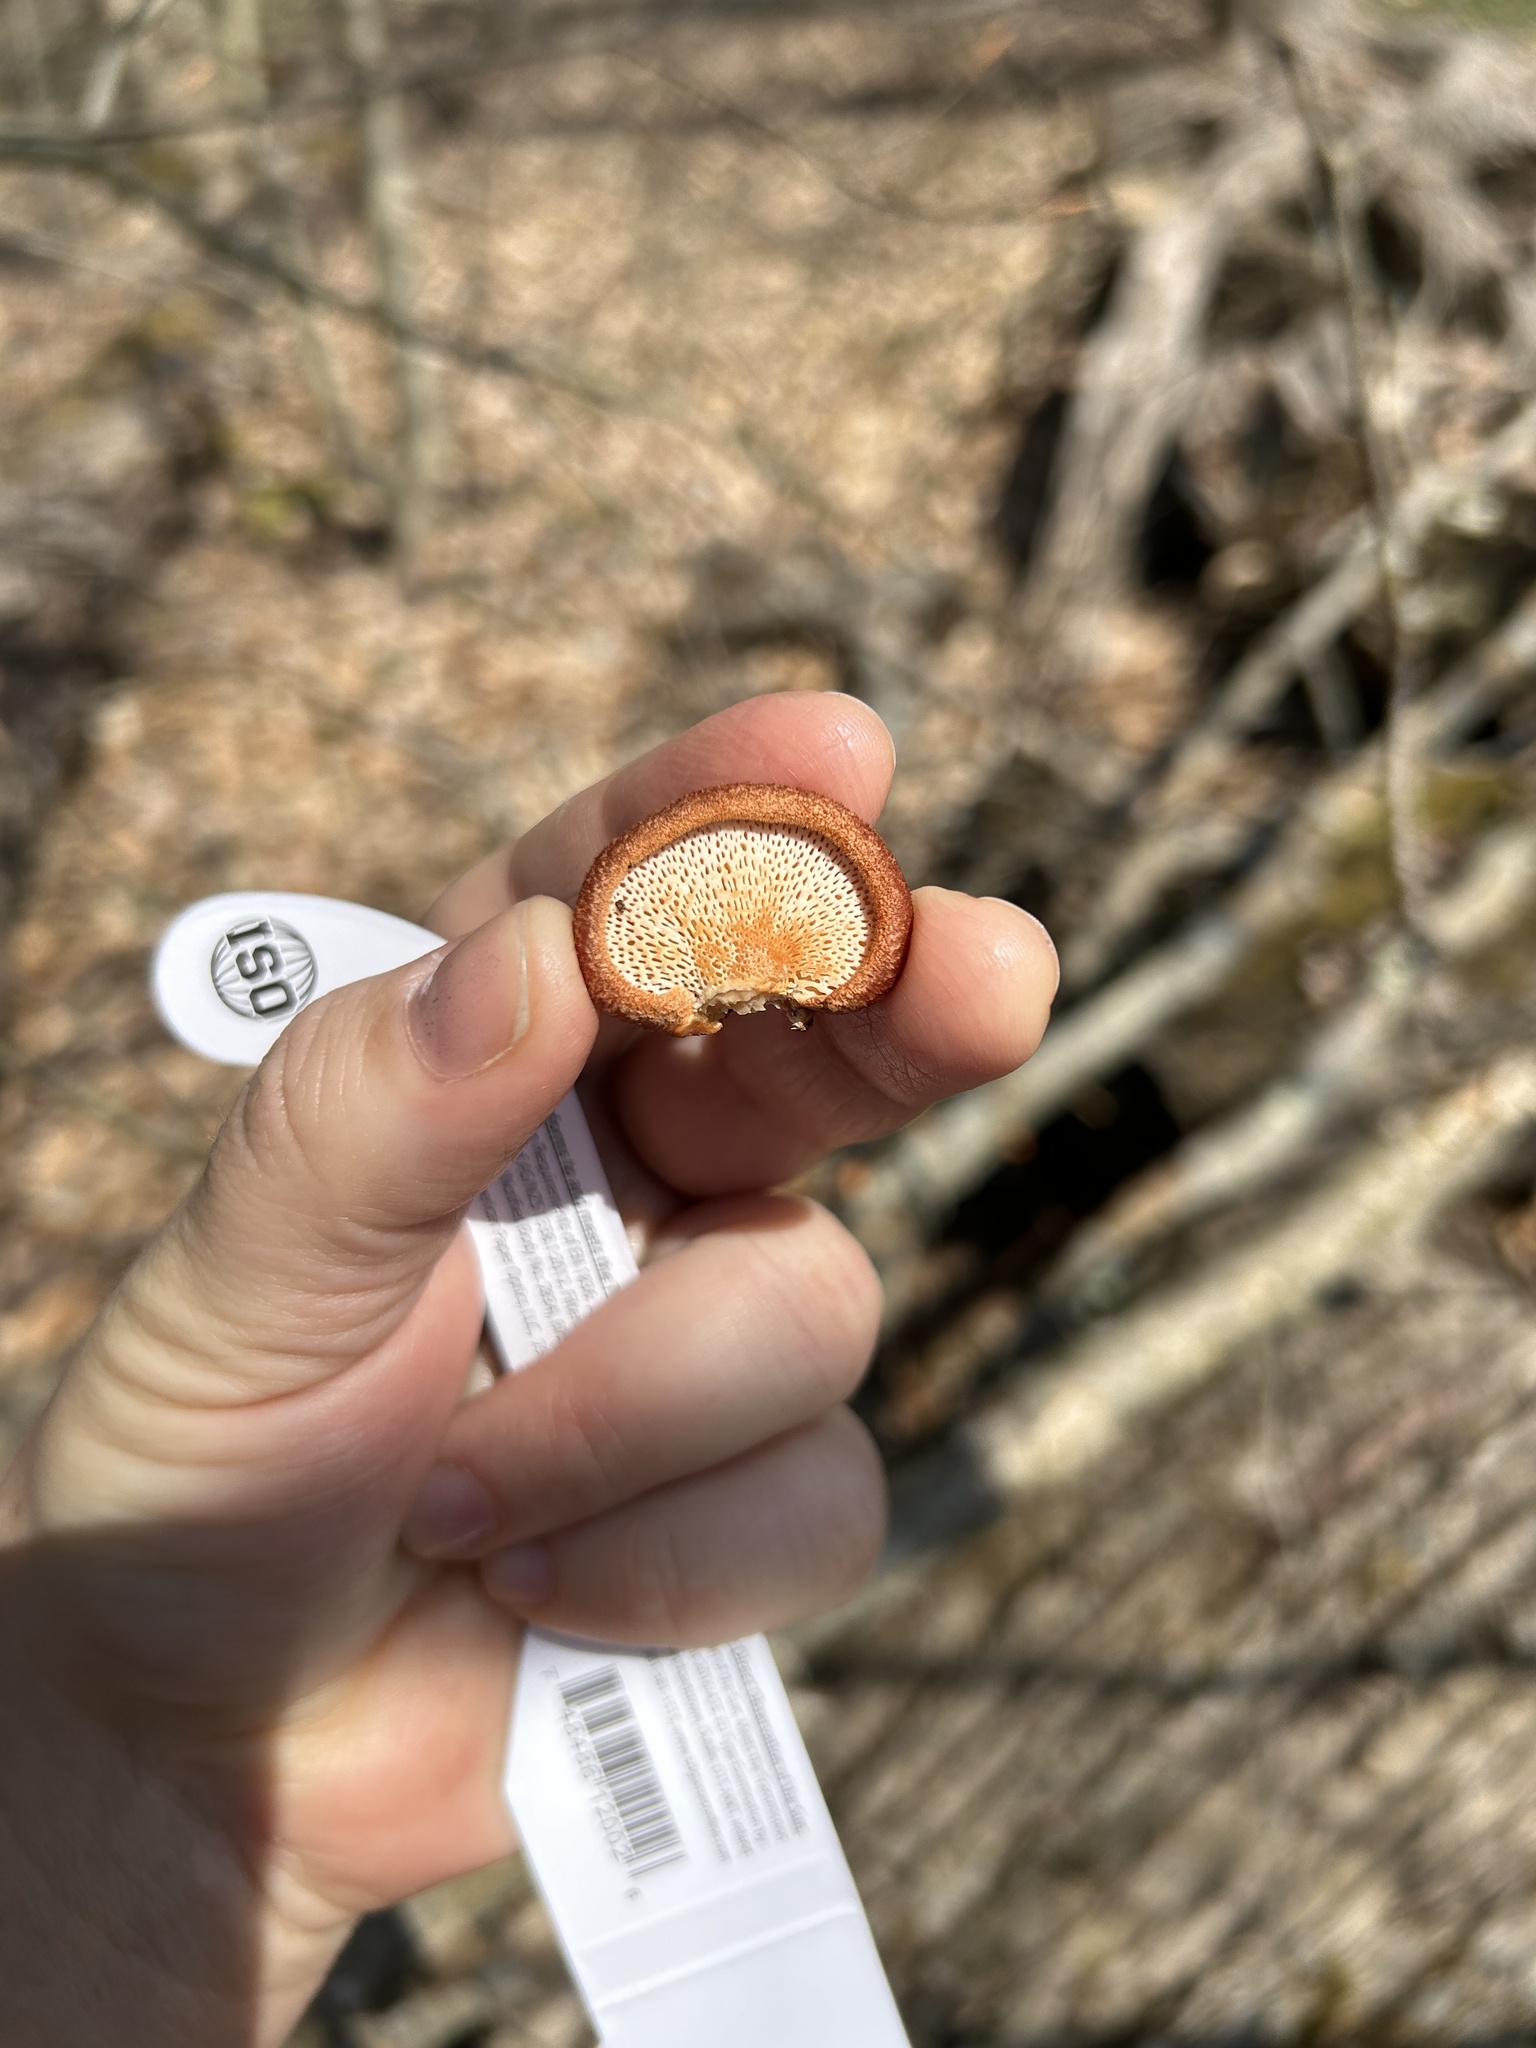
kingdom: Fungi
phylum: Basidiomycota
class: Agaricomycetes
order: Polyporales
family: Polyporaceae
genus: Neofavolus
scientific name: Neofavolus americanus
